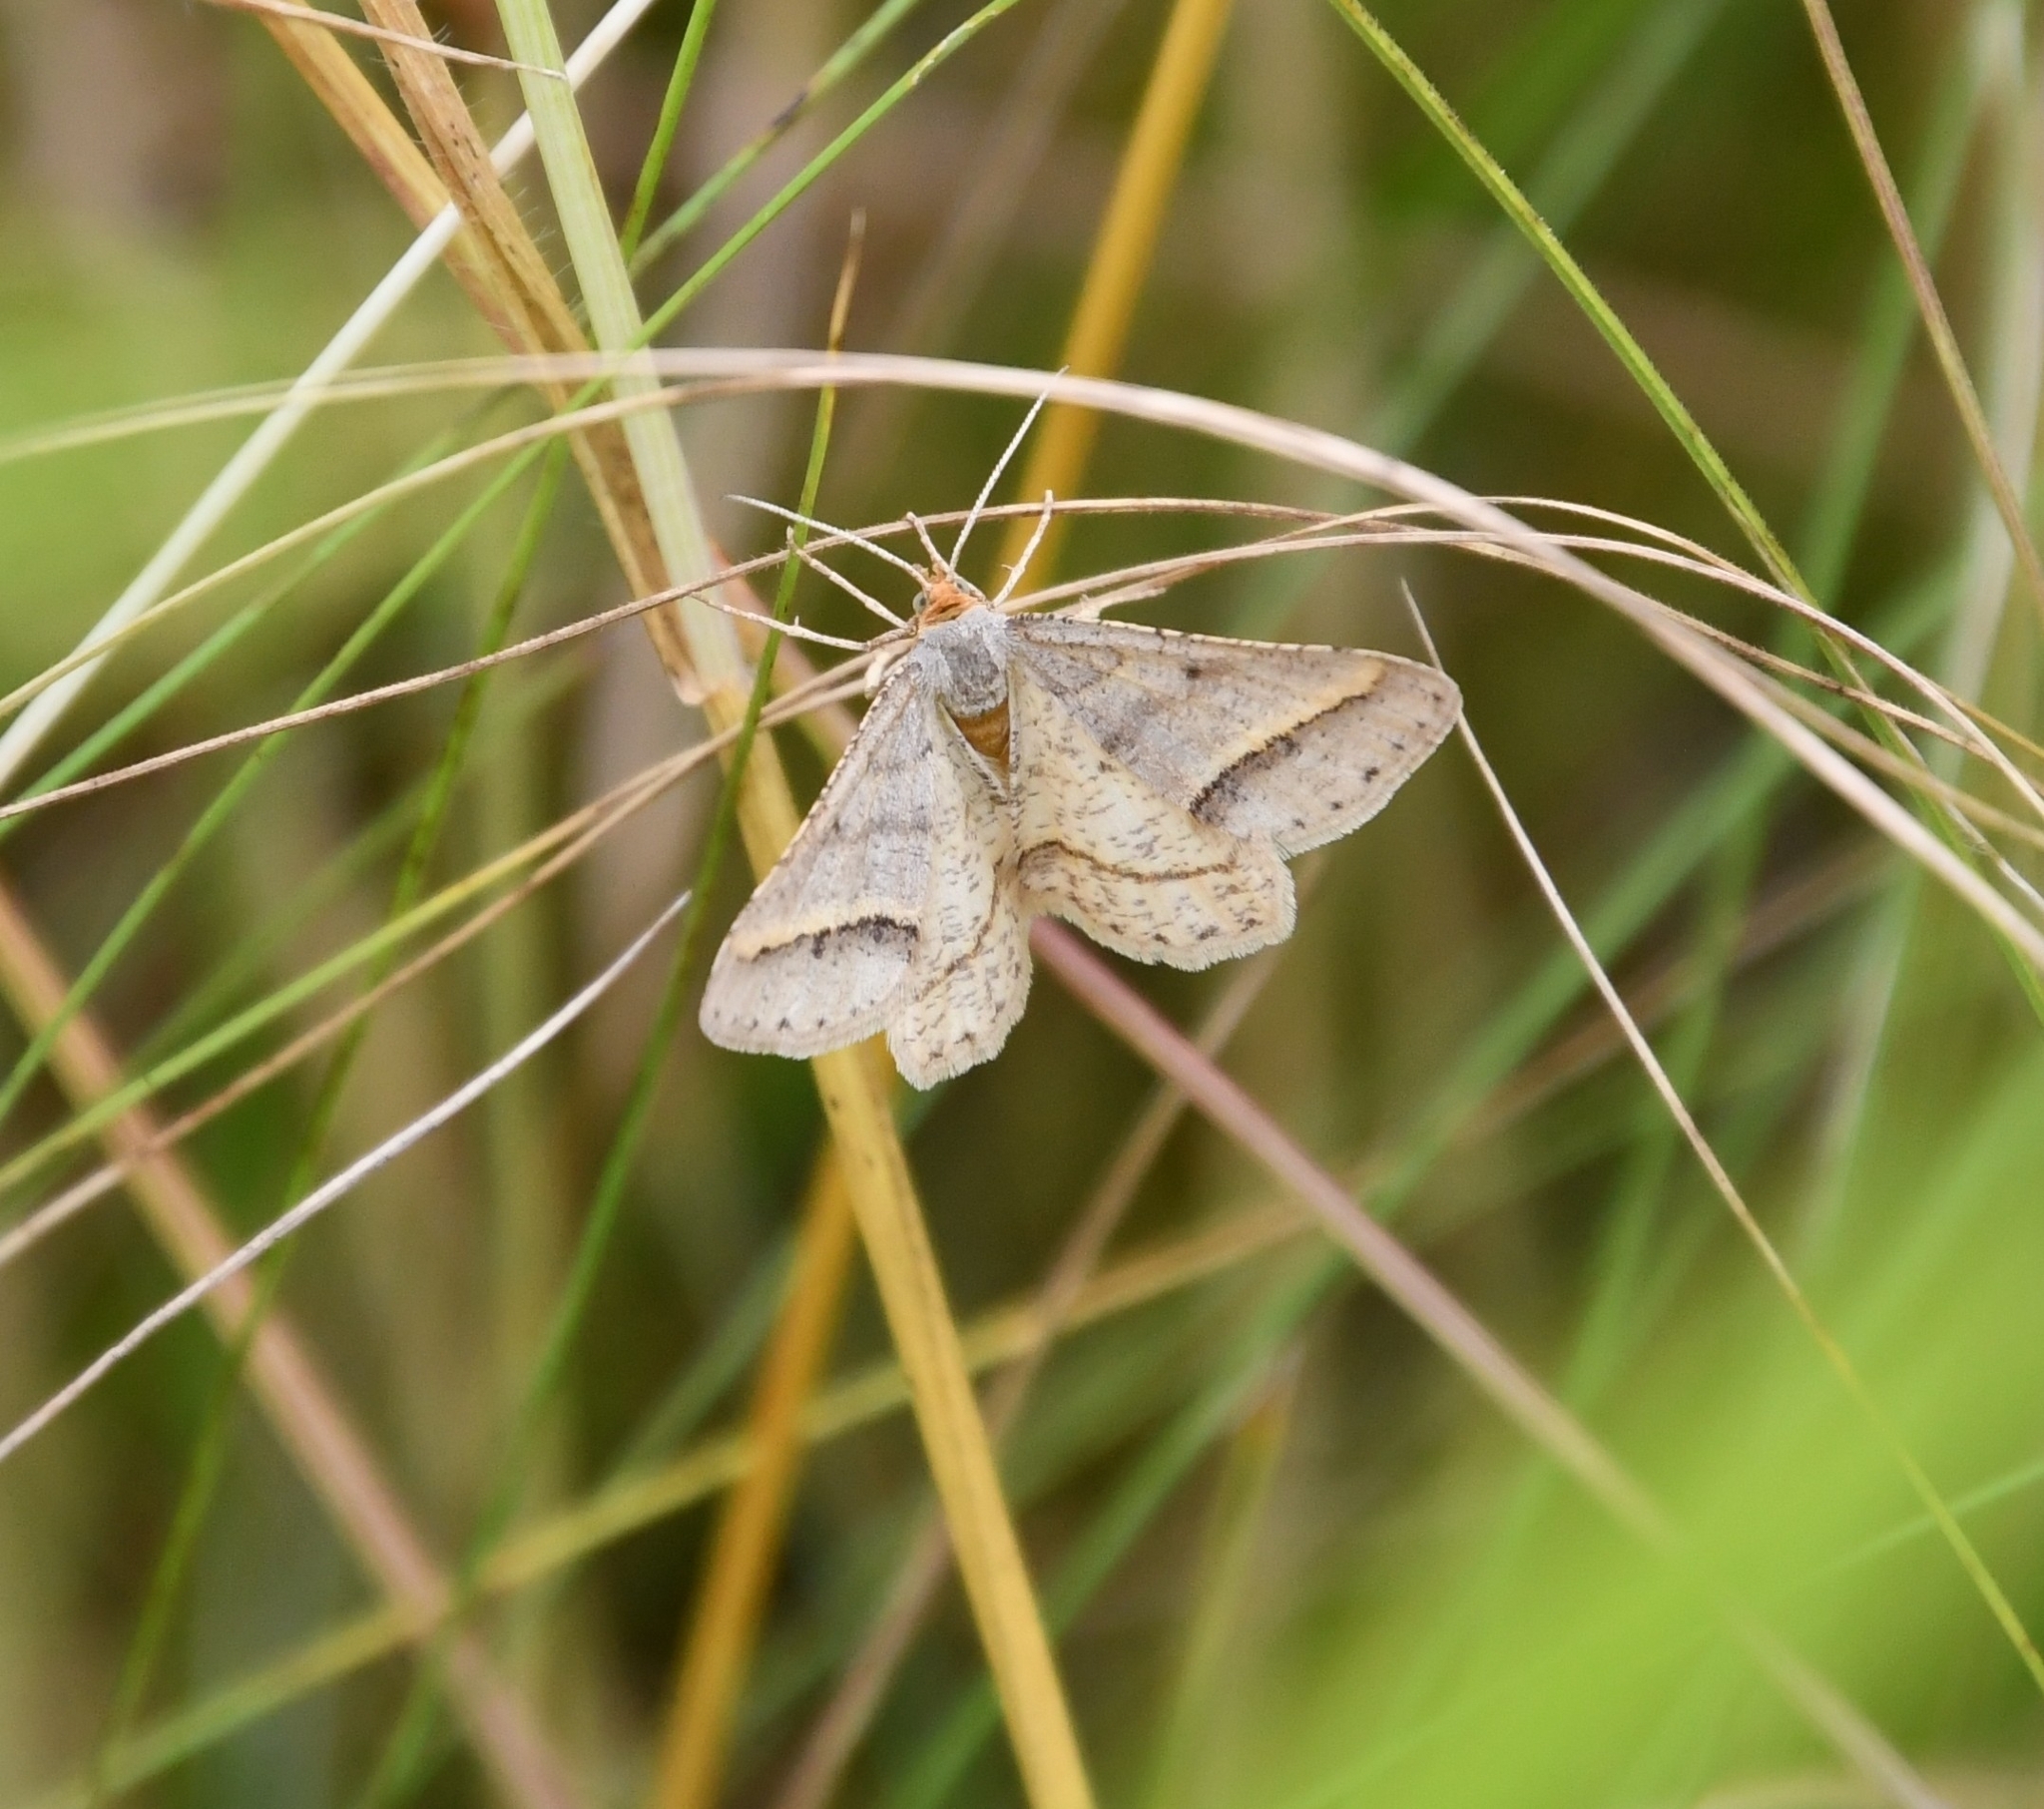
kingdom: Animalia
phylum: Arthropoda
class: Insecta
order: Lepidoptera
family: Geometridae
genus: Tephrina
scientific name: Tephrina arenacearia
